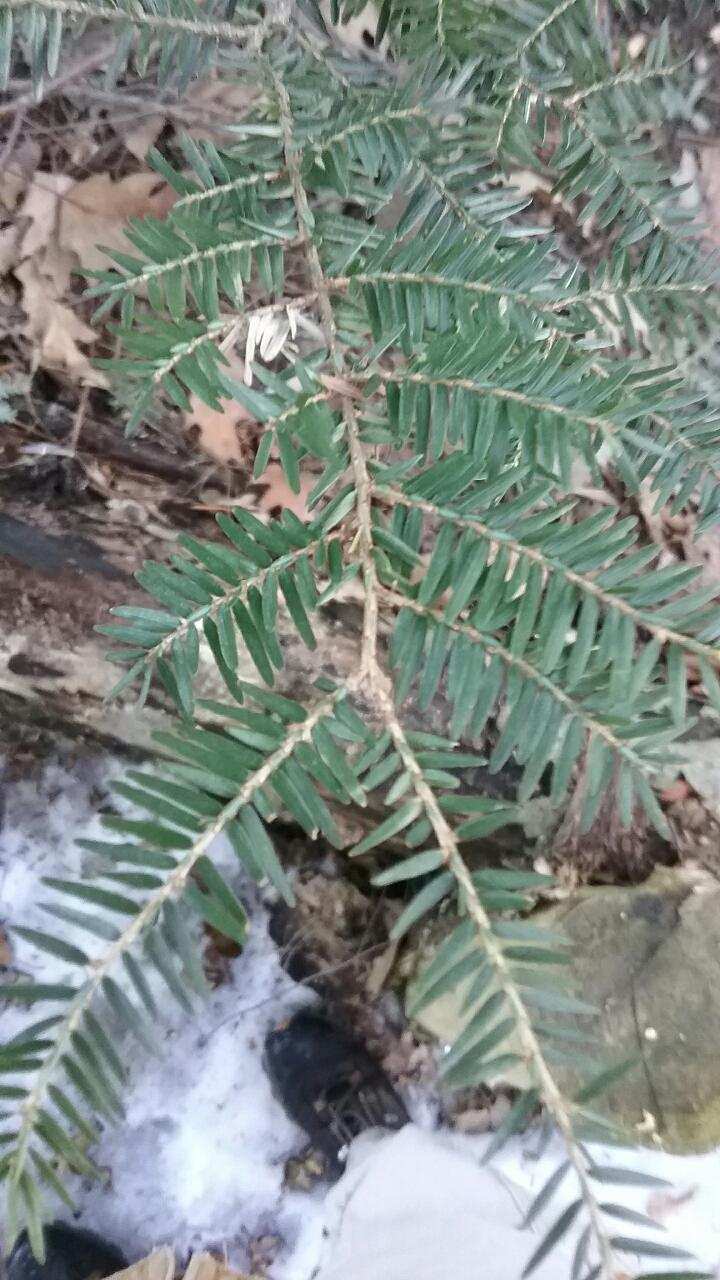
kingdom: Plantae
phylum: Tracheophyta
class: Pinopsida
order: Pinales
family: Pinaceae
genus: Tsuga
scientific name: Tsuga canadensis
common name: Eastern hemlock
